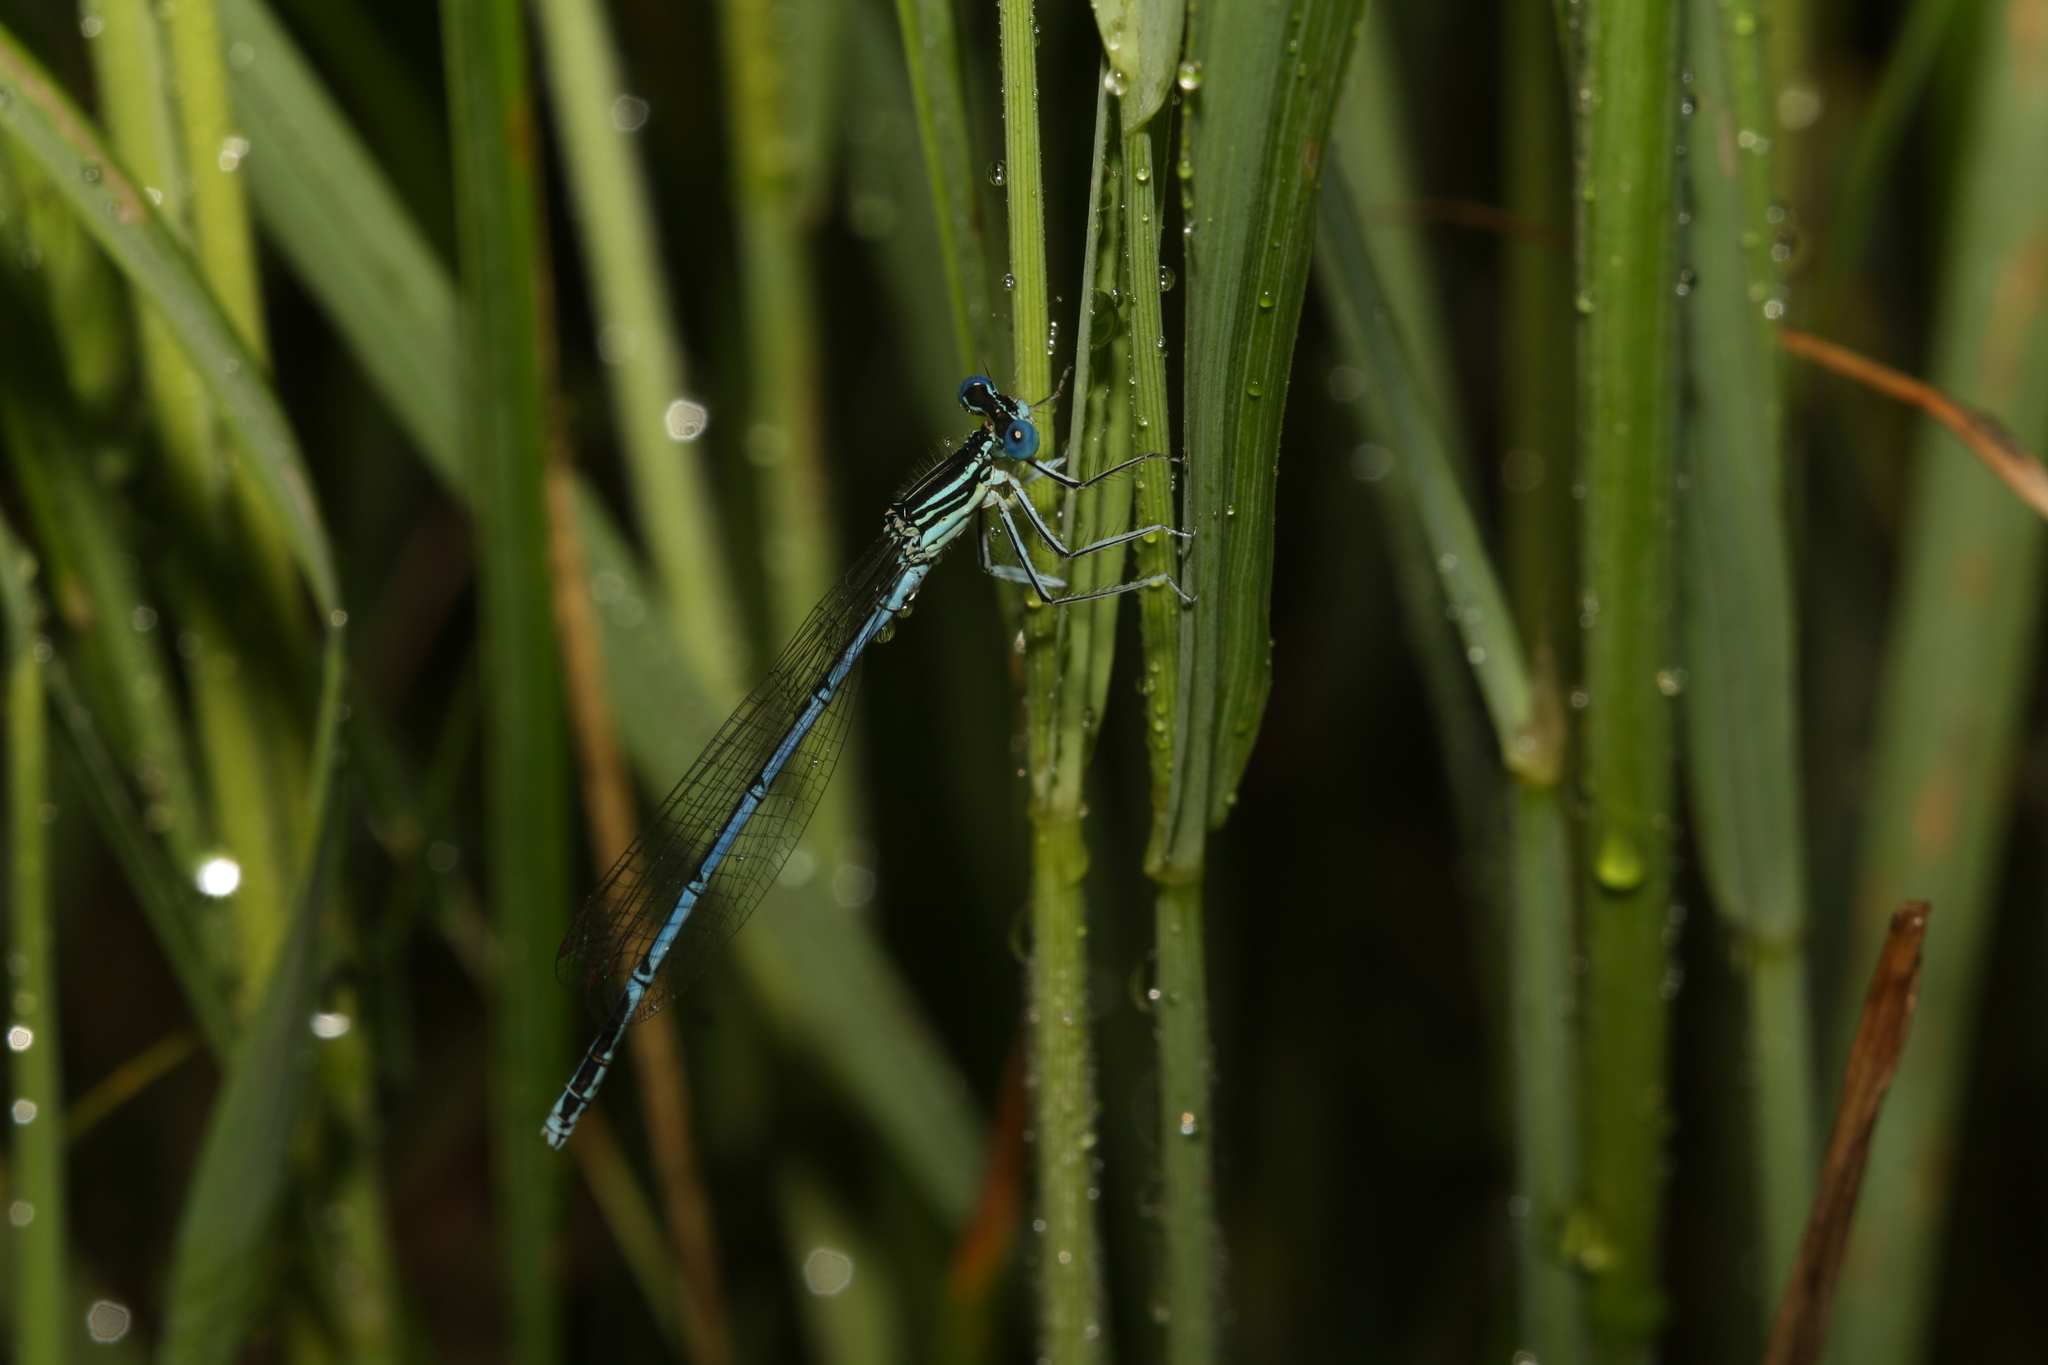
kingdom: Animalia
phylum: Arthropoda
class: Insecta
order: Odonata
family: Platycnemididae
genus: Platycnemis
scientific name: Platycnemis pennipes
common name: White-legged damselfly
